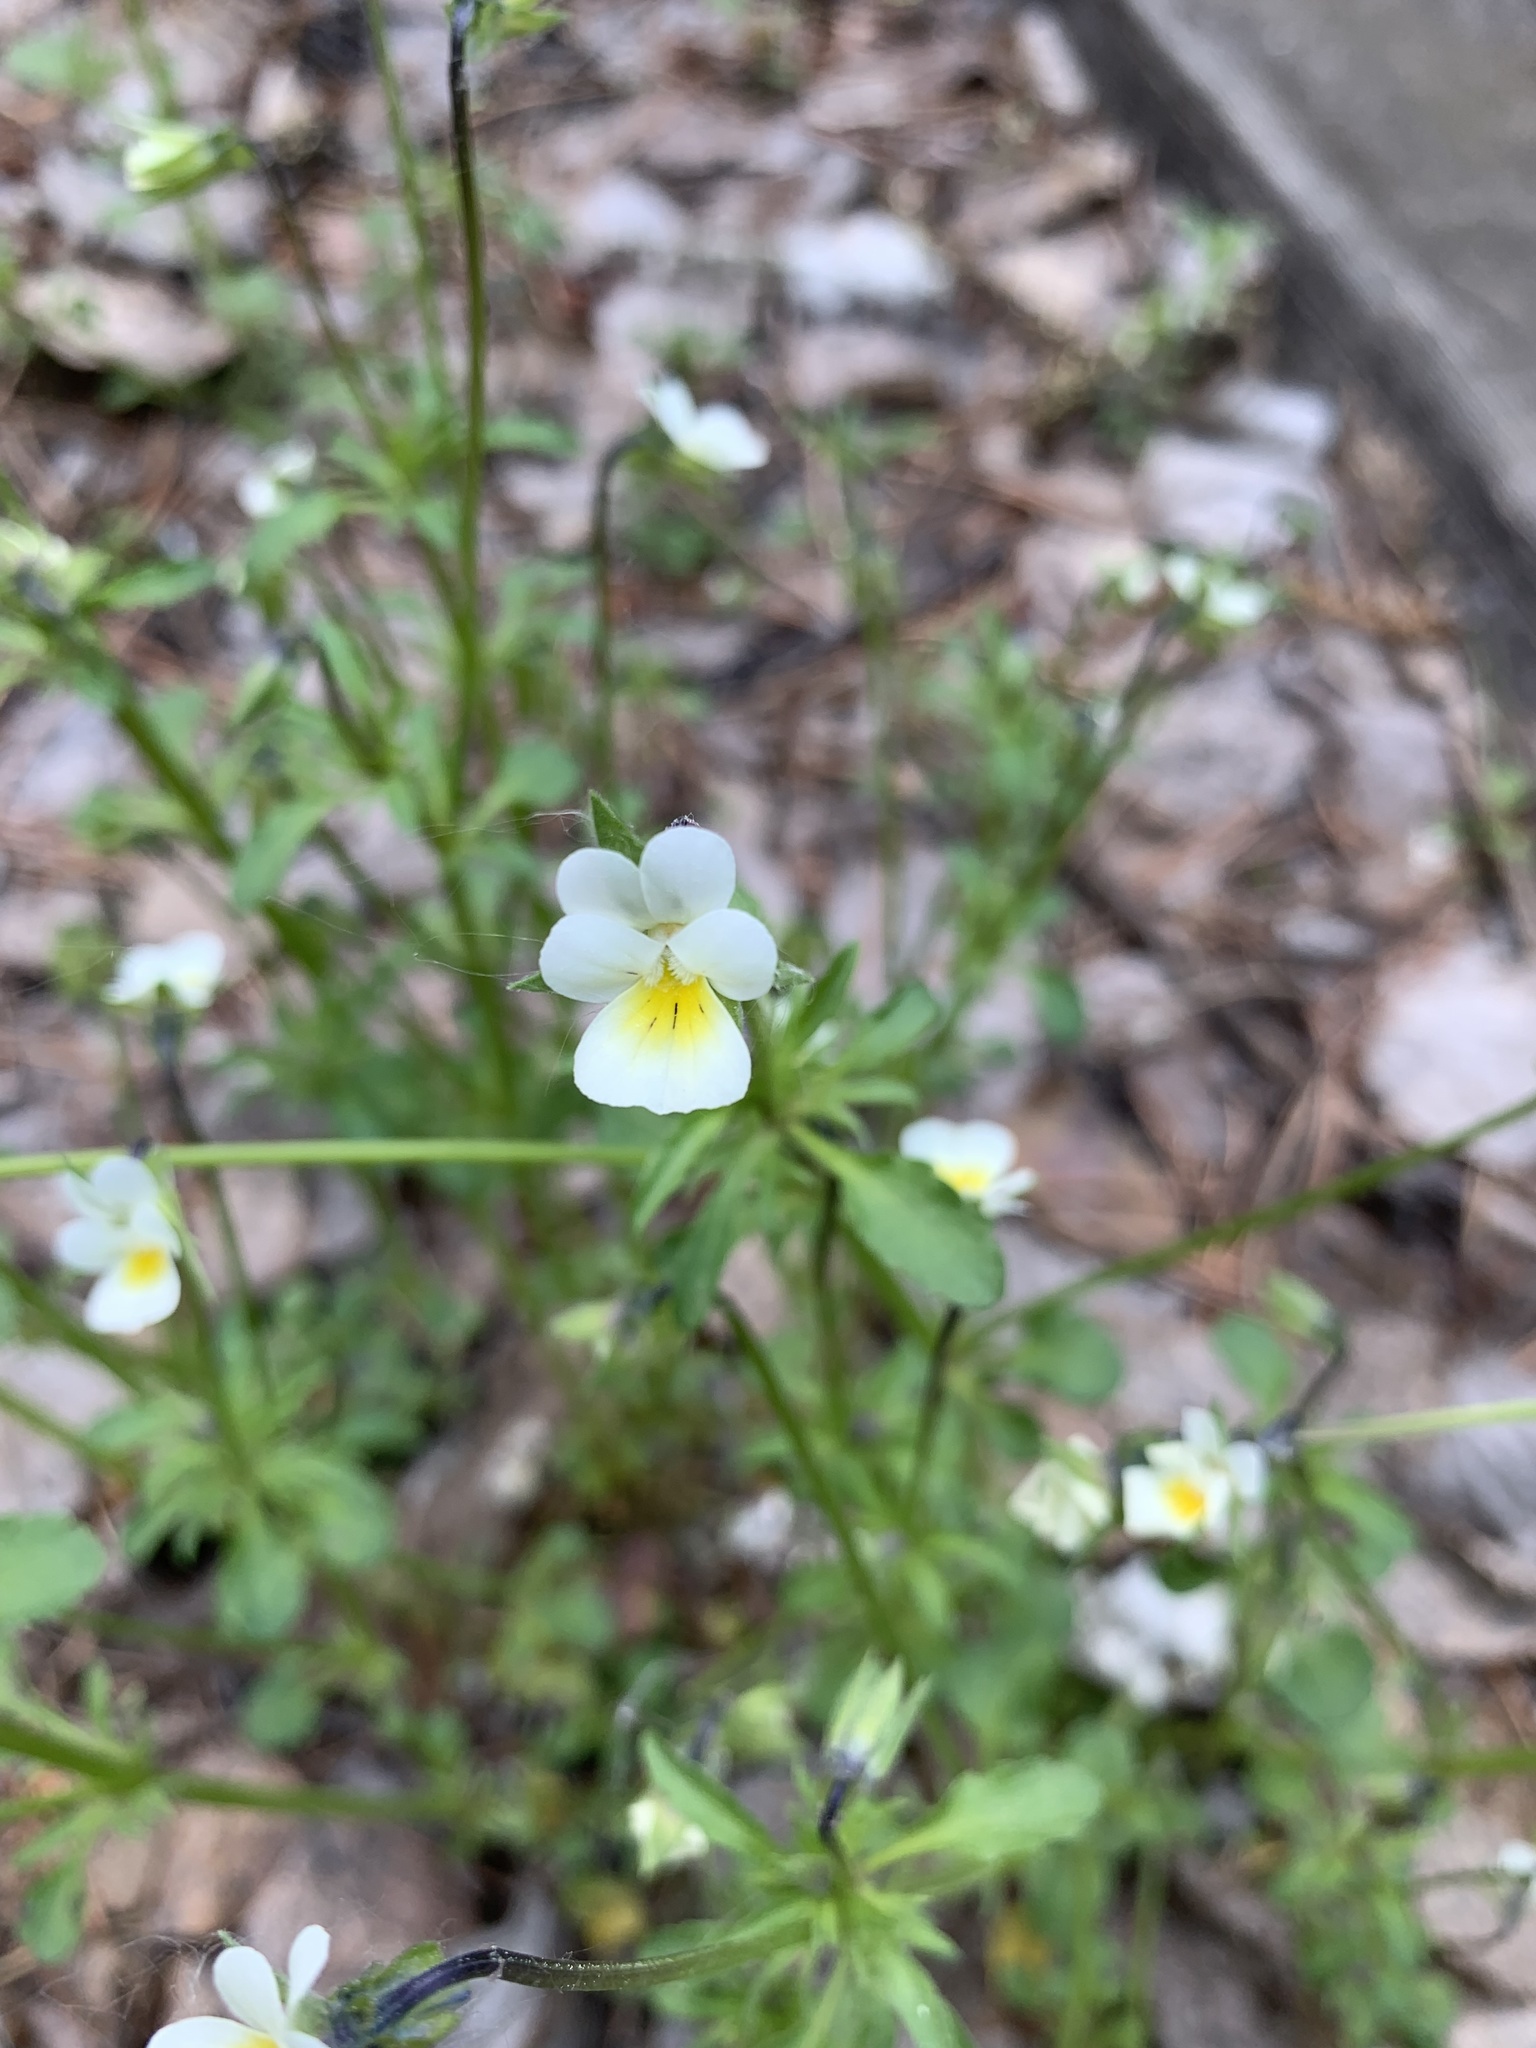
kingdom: Plantae
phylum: Tracheophyta
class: Magnoliopsida
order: Malpighiales
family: Violaceae
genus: Viola
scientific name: Viola arvensis
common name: Field pansy
